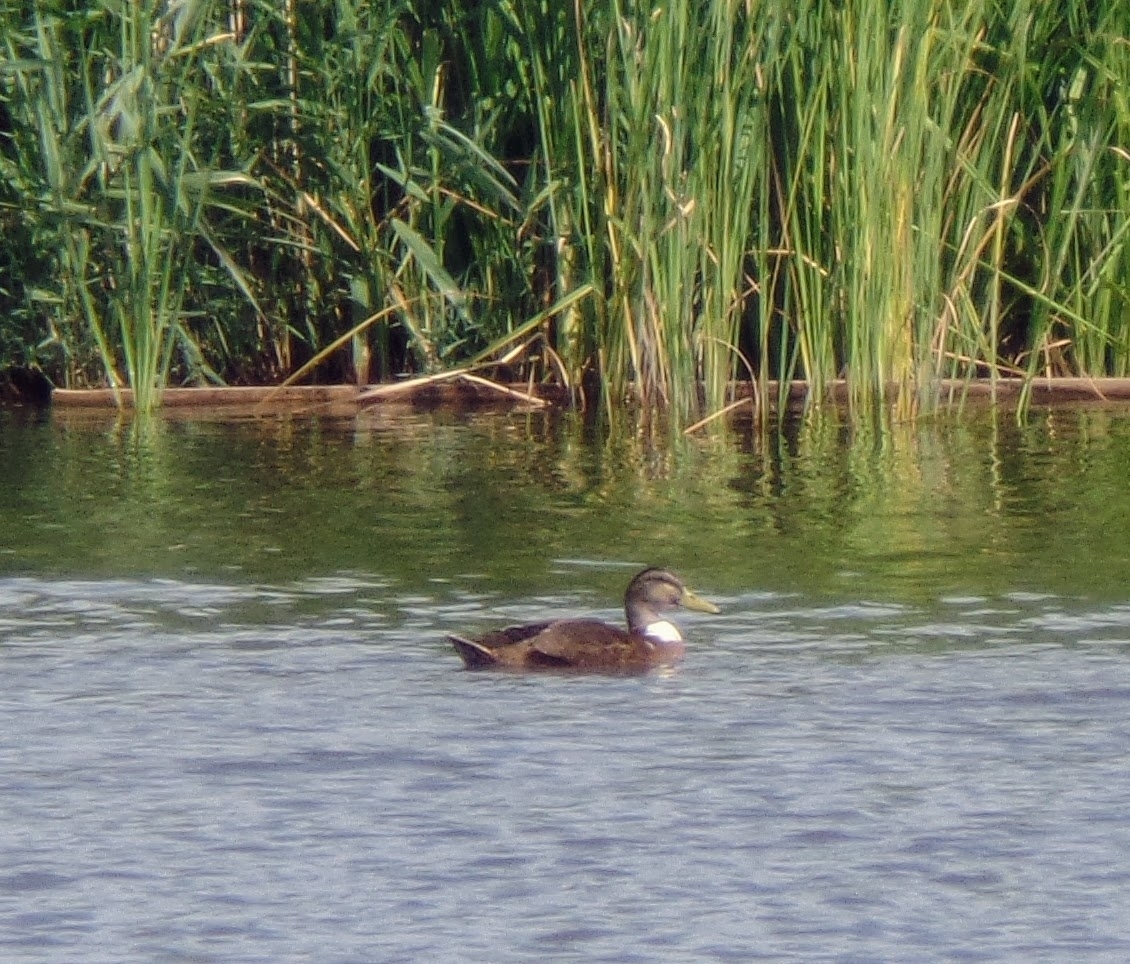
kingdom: Animalia
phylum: Chordata
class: Aves
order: Anseriformes
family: Anatidae
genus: Anas
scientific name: Anas platyrhynchos
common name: Mallard
